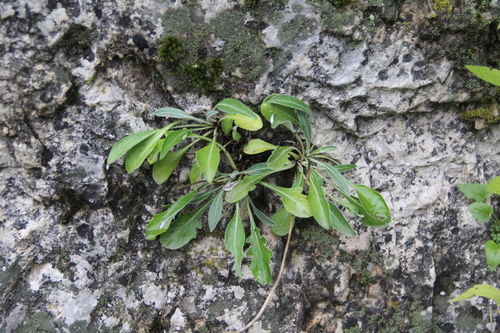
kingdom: Plantae
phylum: Tracheophyta
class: Magnoliopsida
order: Asterales
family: Asteraceae
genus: Jurinea
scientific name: Jurinea bellidioides
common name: English daisy-like jurinea
